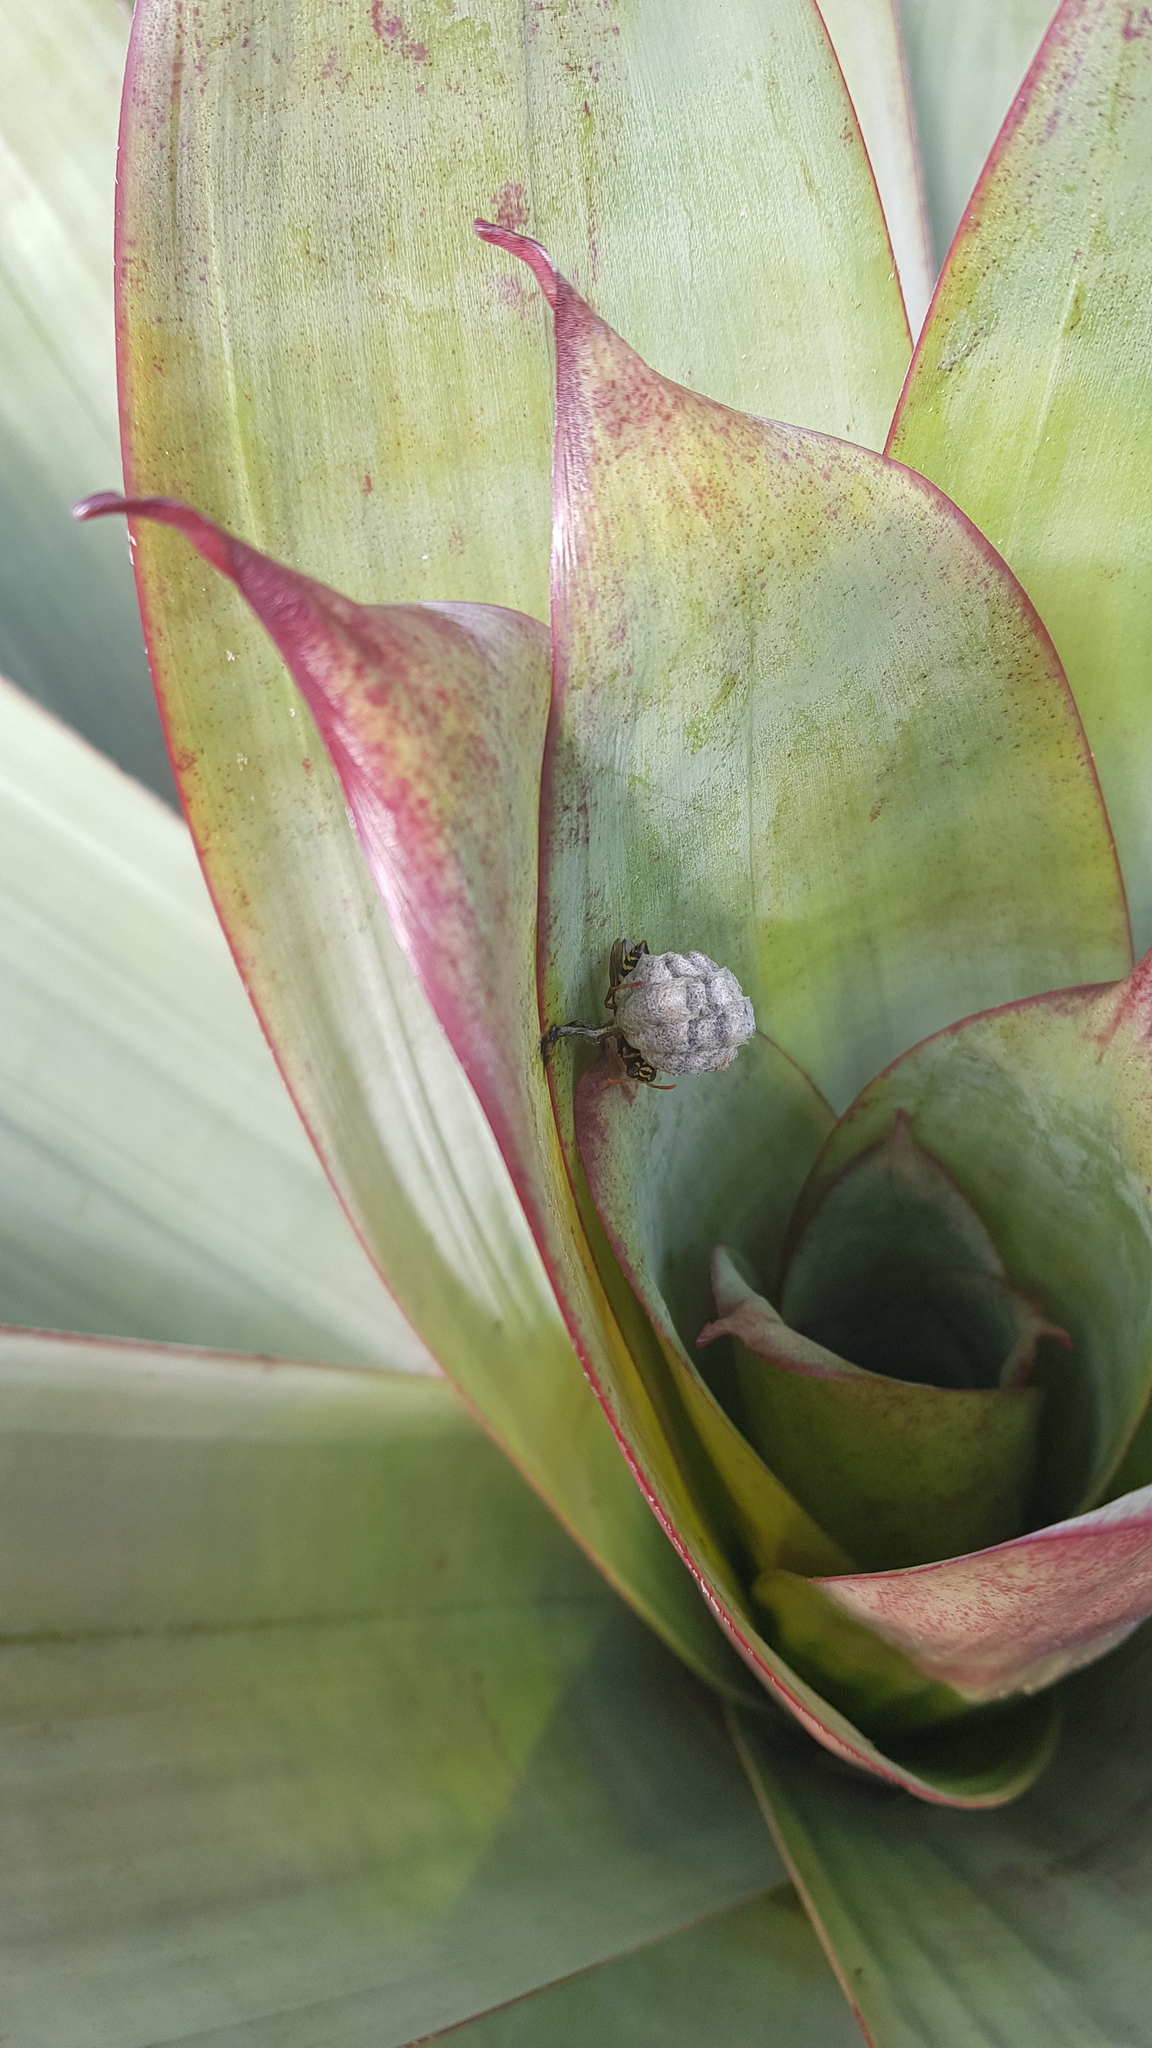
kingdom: Animalia
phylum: Arthropoda
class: Insecta
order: Hymenoptera
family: Eumenidae
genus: Polistes
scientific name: Polistes chinensis
